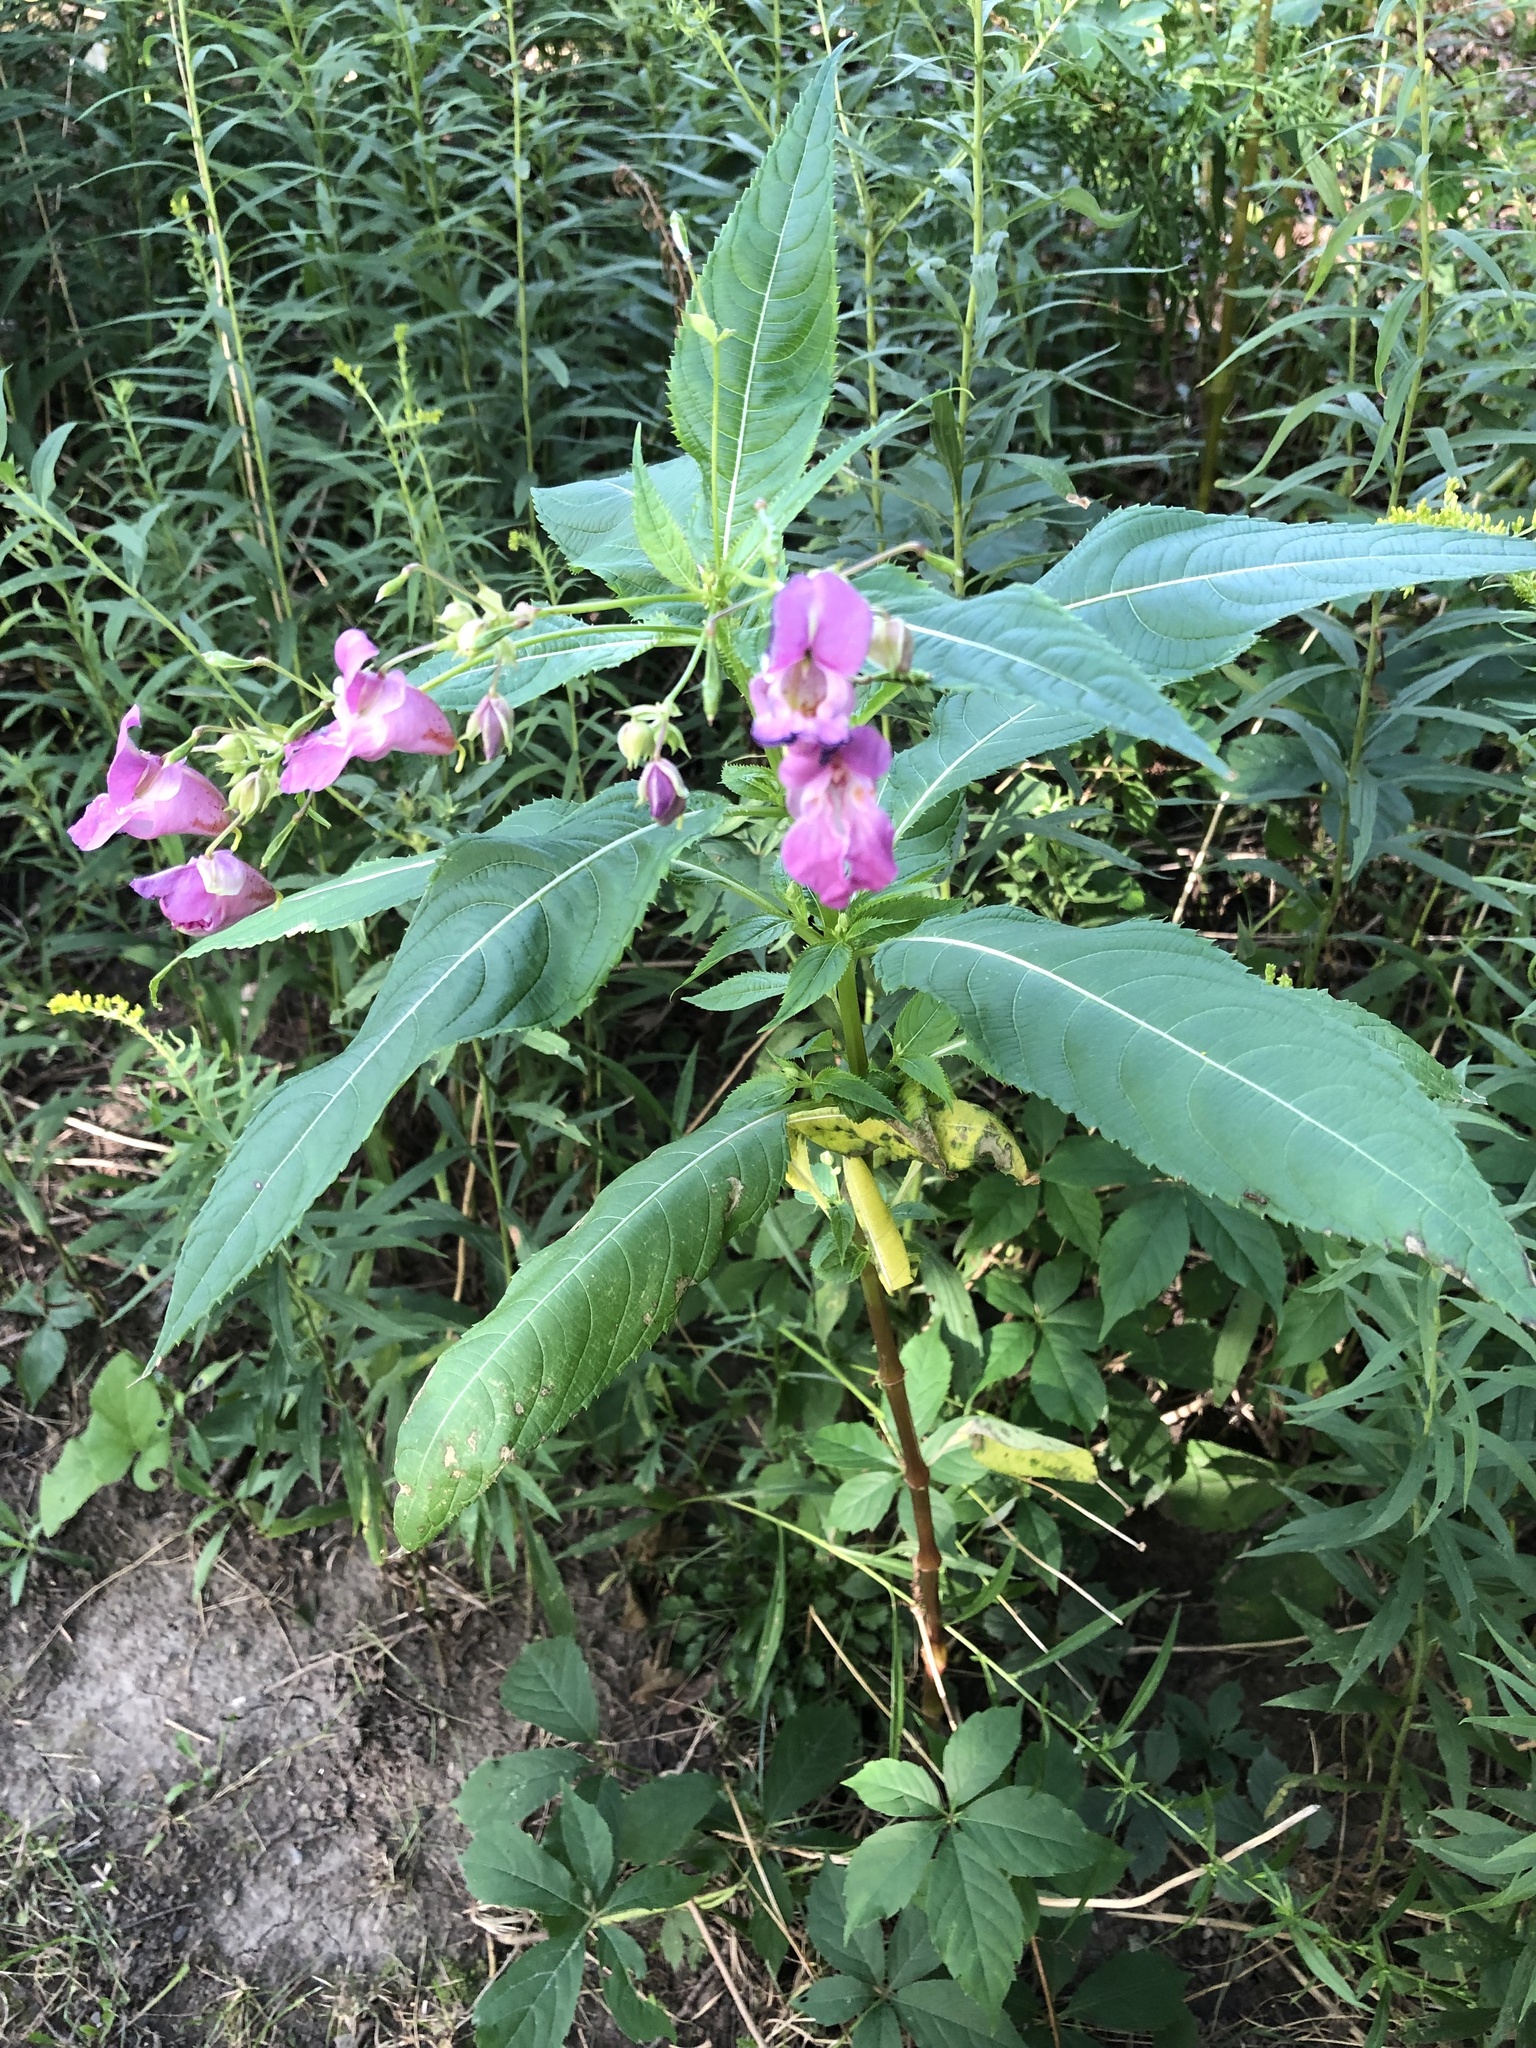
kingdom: Plantae
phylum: Tracheophyta
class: Magnoliopsida
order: Ericales
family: Balsaminaceae
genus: Impatiens
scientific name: Impatiens glandulifera
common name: Himalayan balsam
